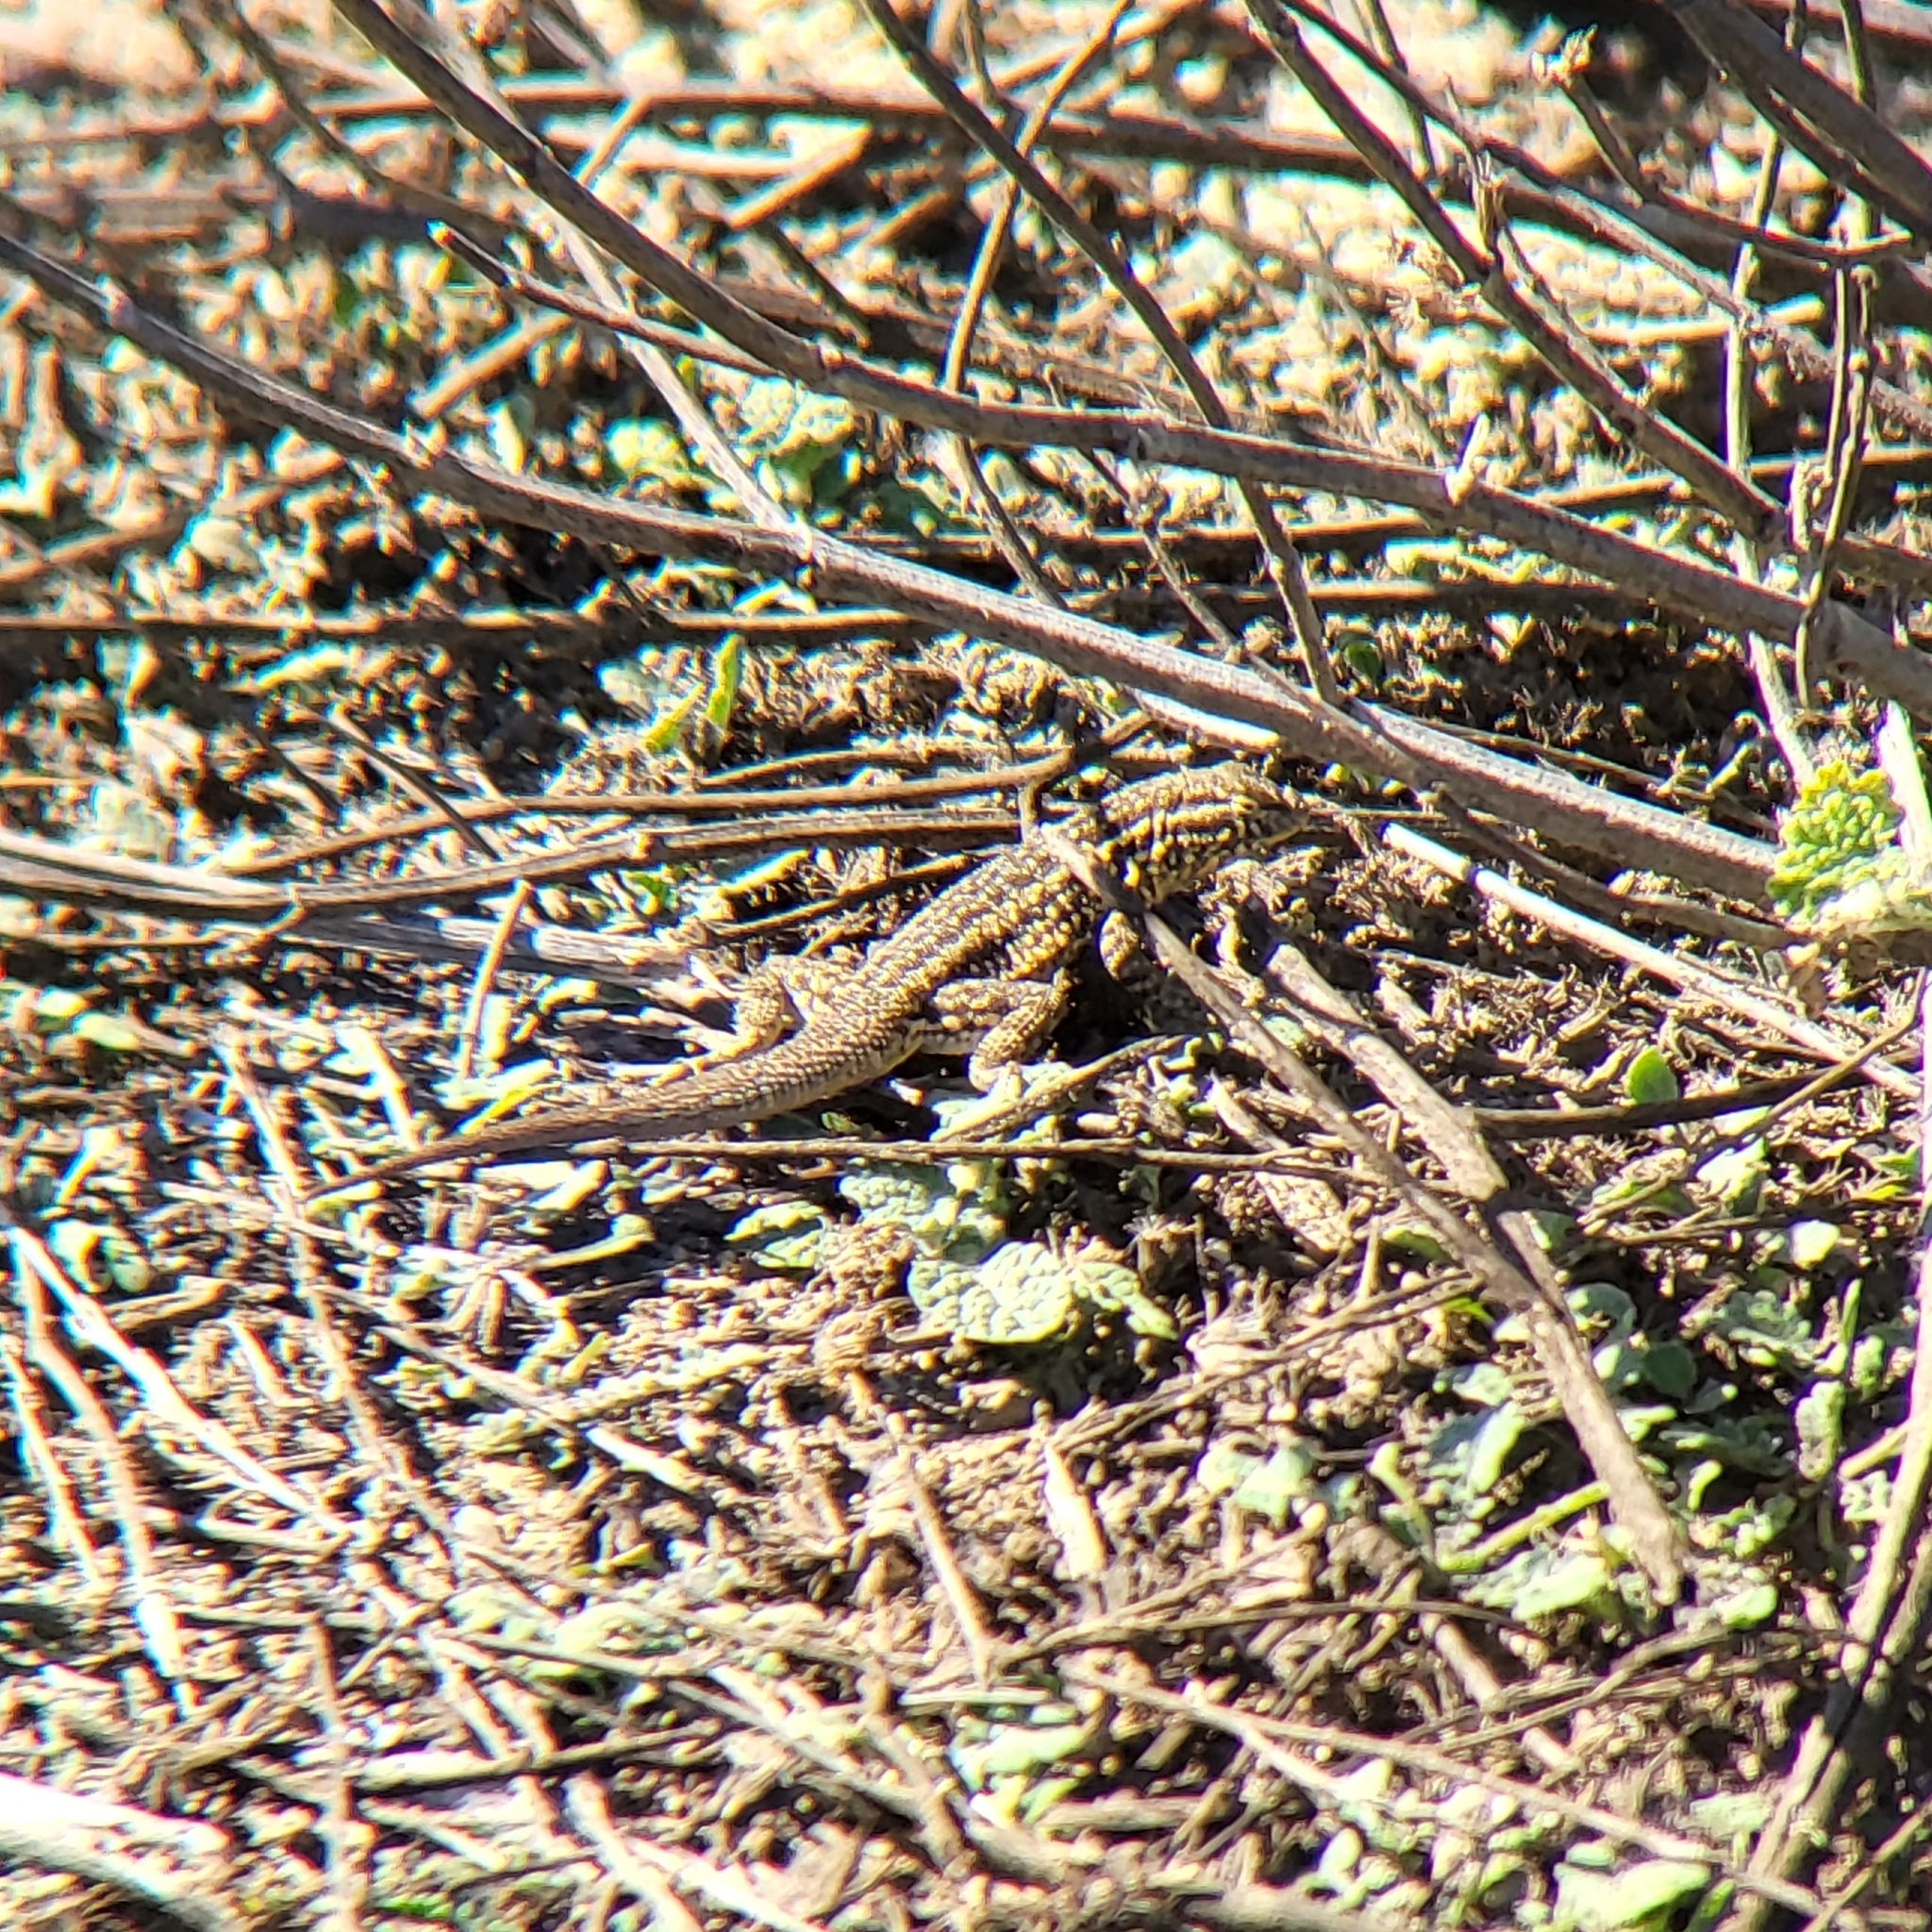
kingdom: Animalia
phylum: Chordata
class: Squamata
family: Phrynosomatidae
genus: Uta
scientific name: Uta stansburiana
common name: Side-blotched lizard
